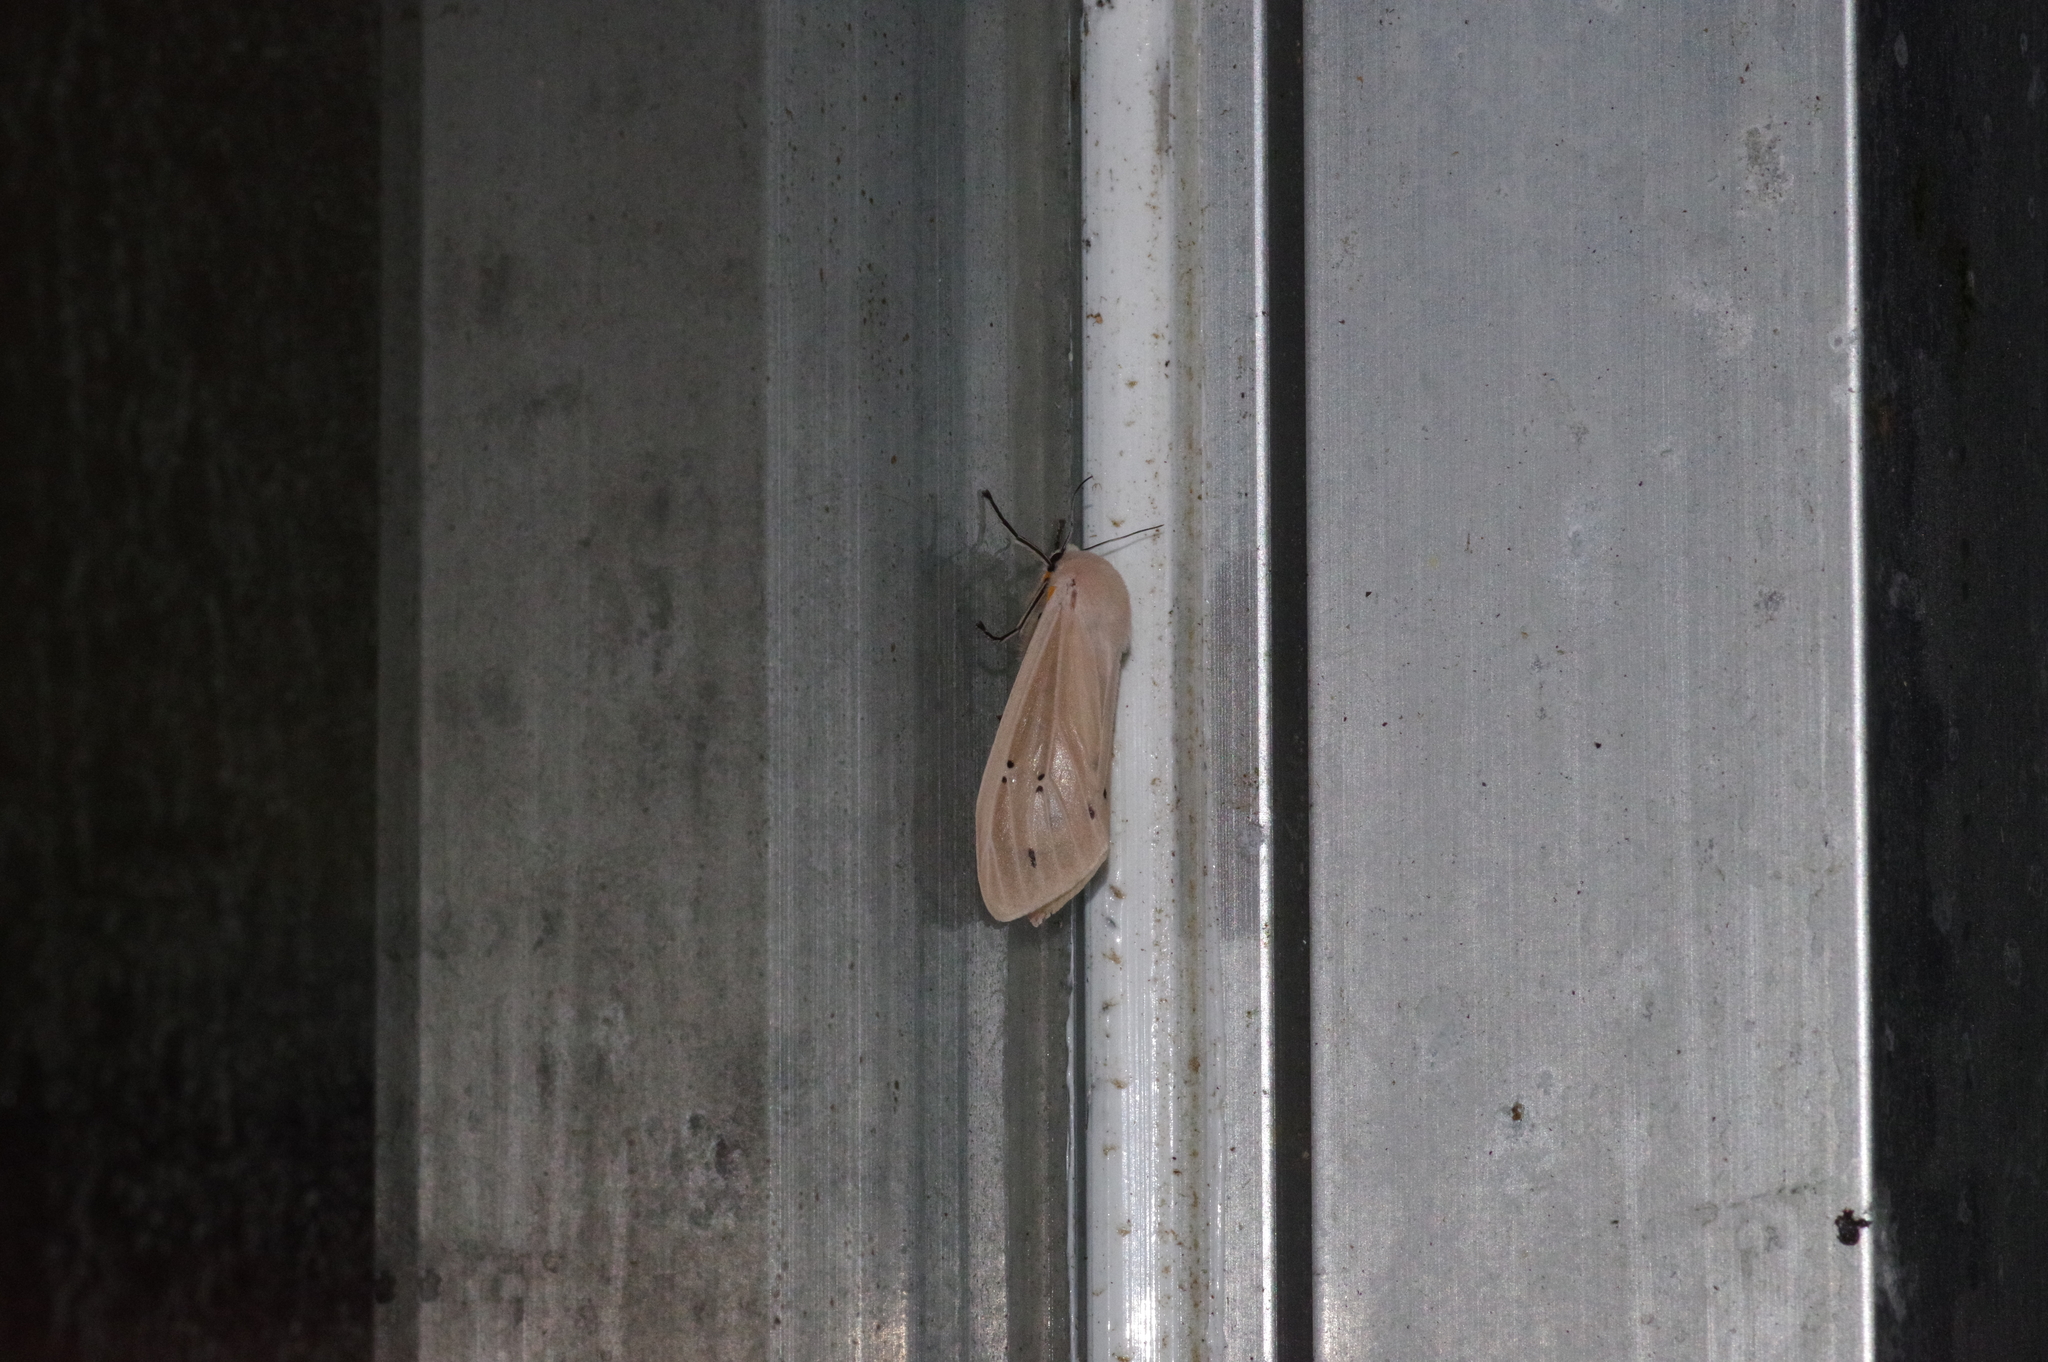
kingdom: Animalia
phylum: Arthropoda
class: Insecta
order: Lepidoptera
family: Erebidae
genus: Creatonotos
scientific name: Creatonotos transiens
